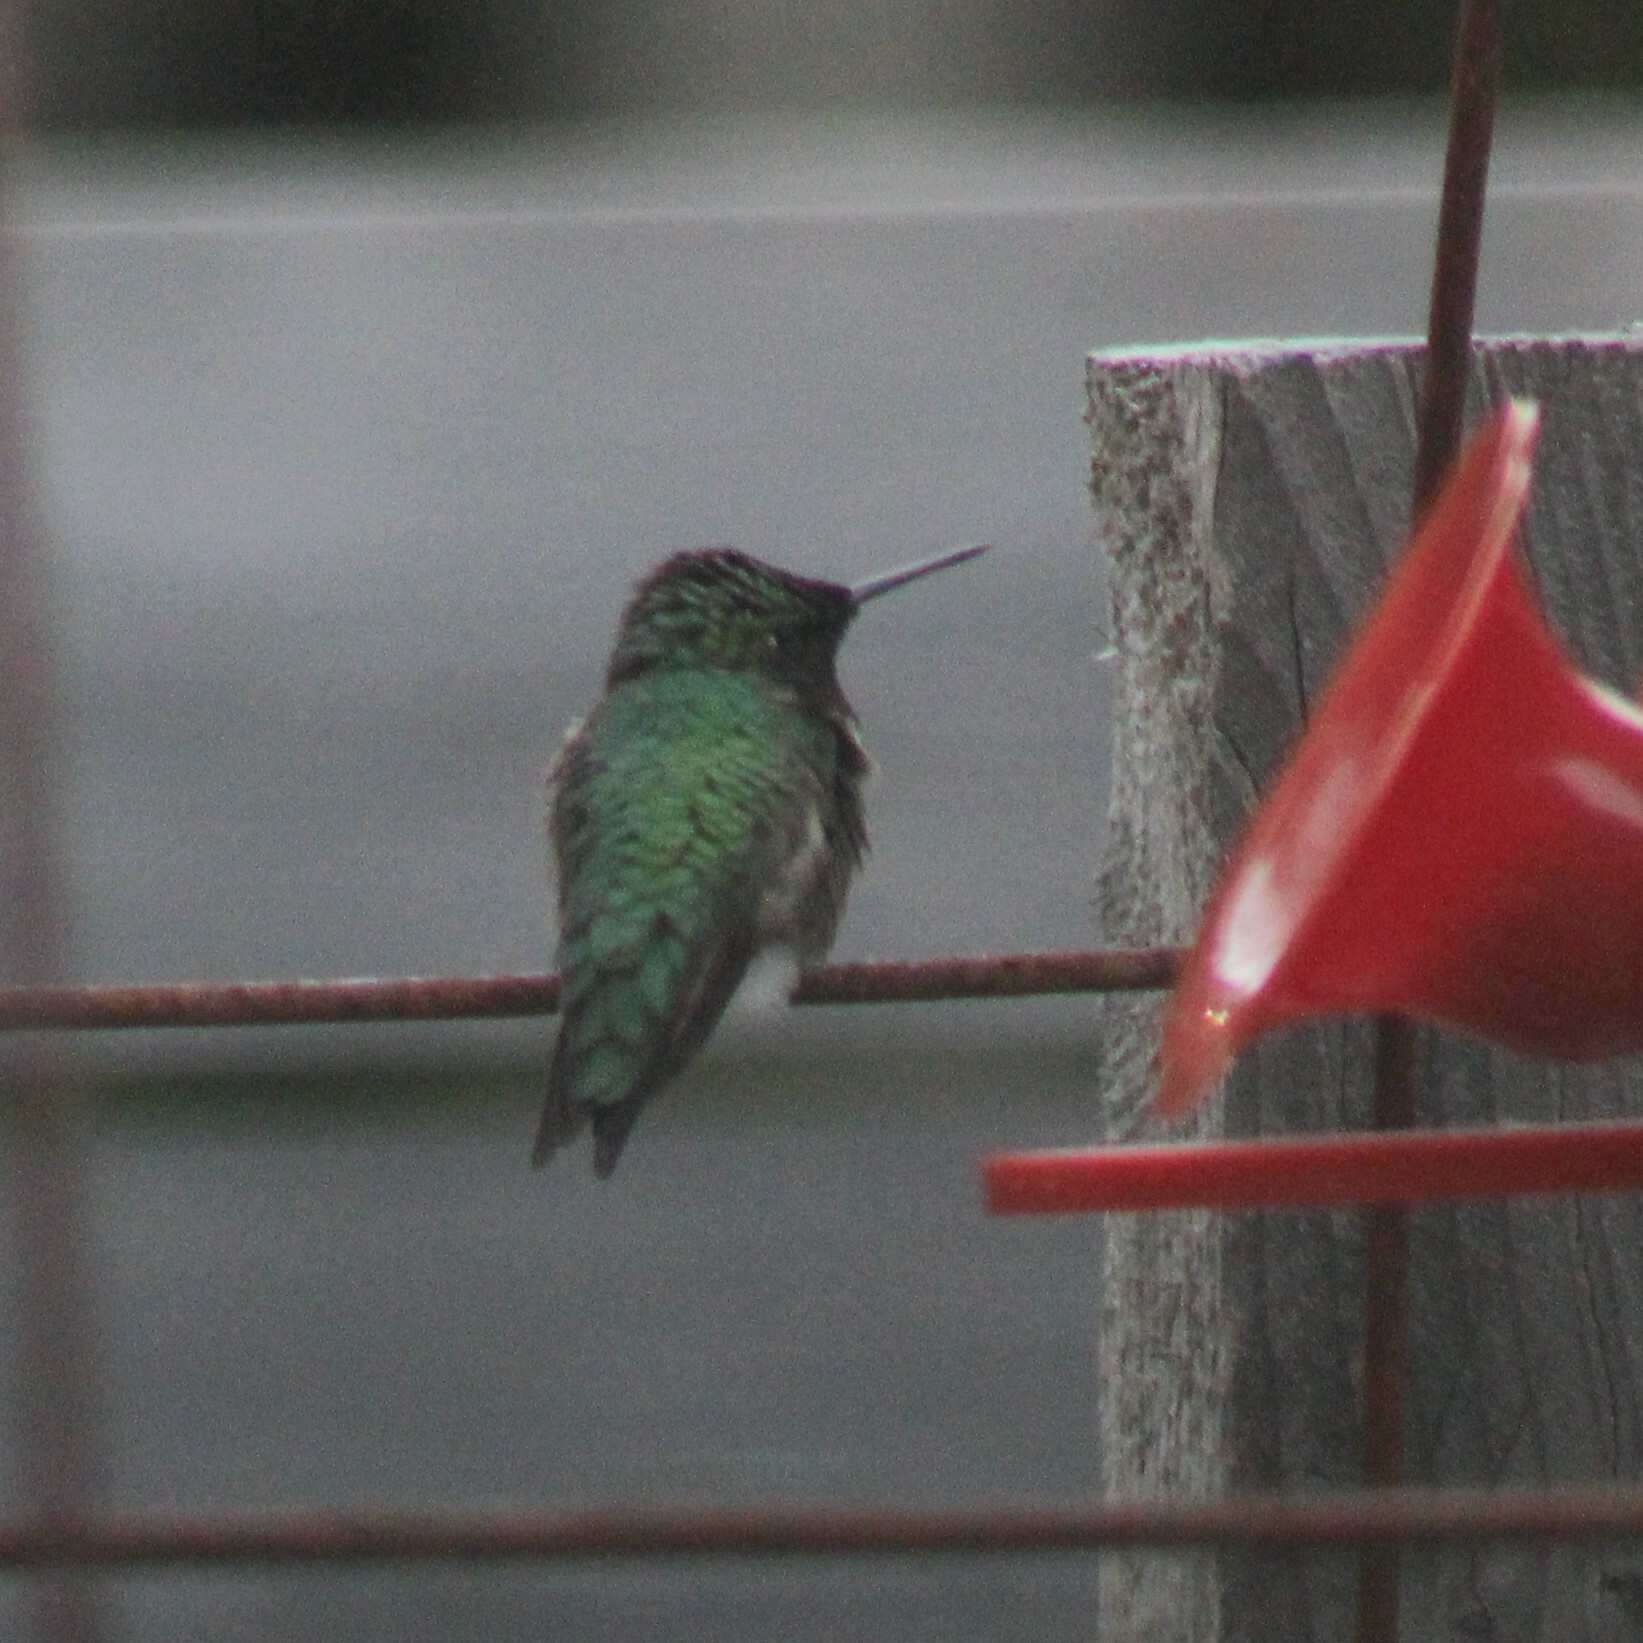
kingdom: Animalia
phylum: Chordata
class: Aves
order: Apodiformes
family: Trochilidae
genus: Archilochus
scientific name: Archilochus colubris
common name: Ruby-throated hummingbird
